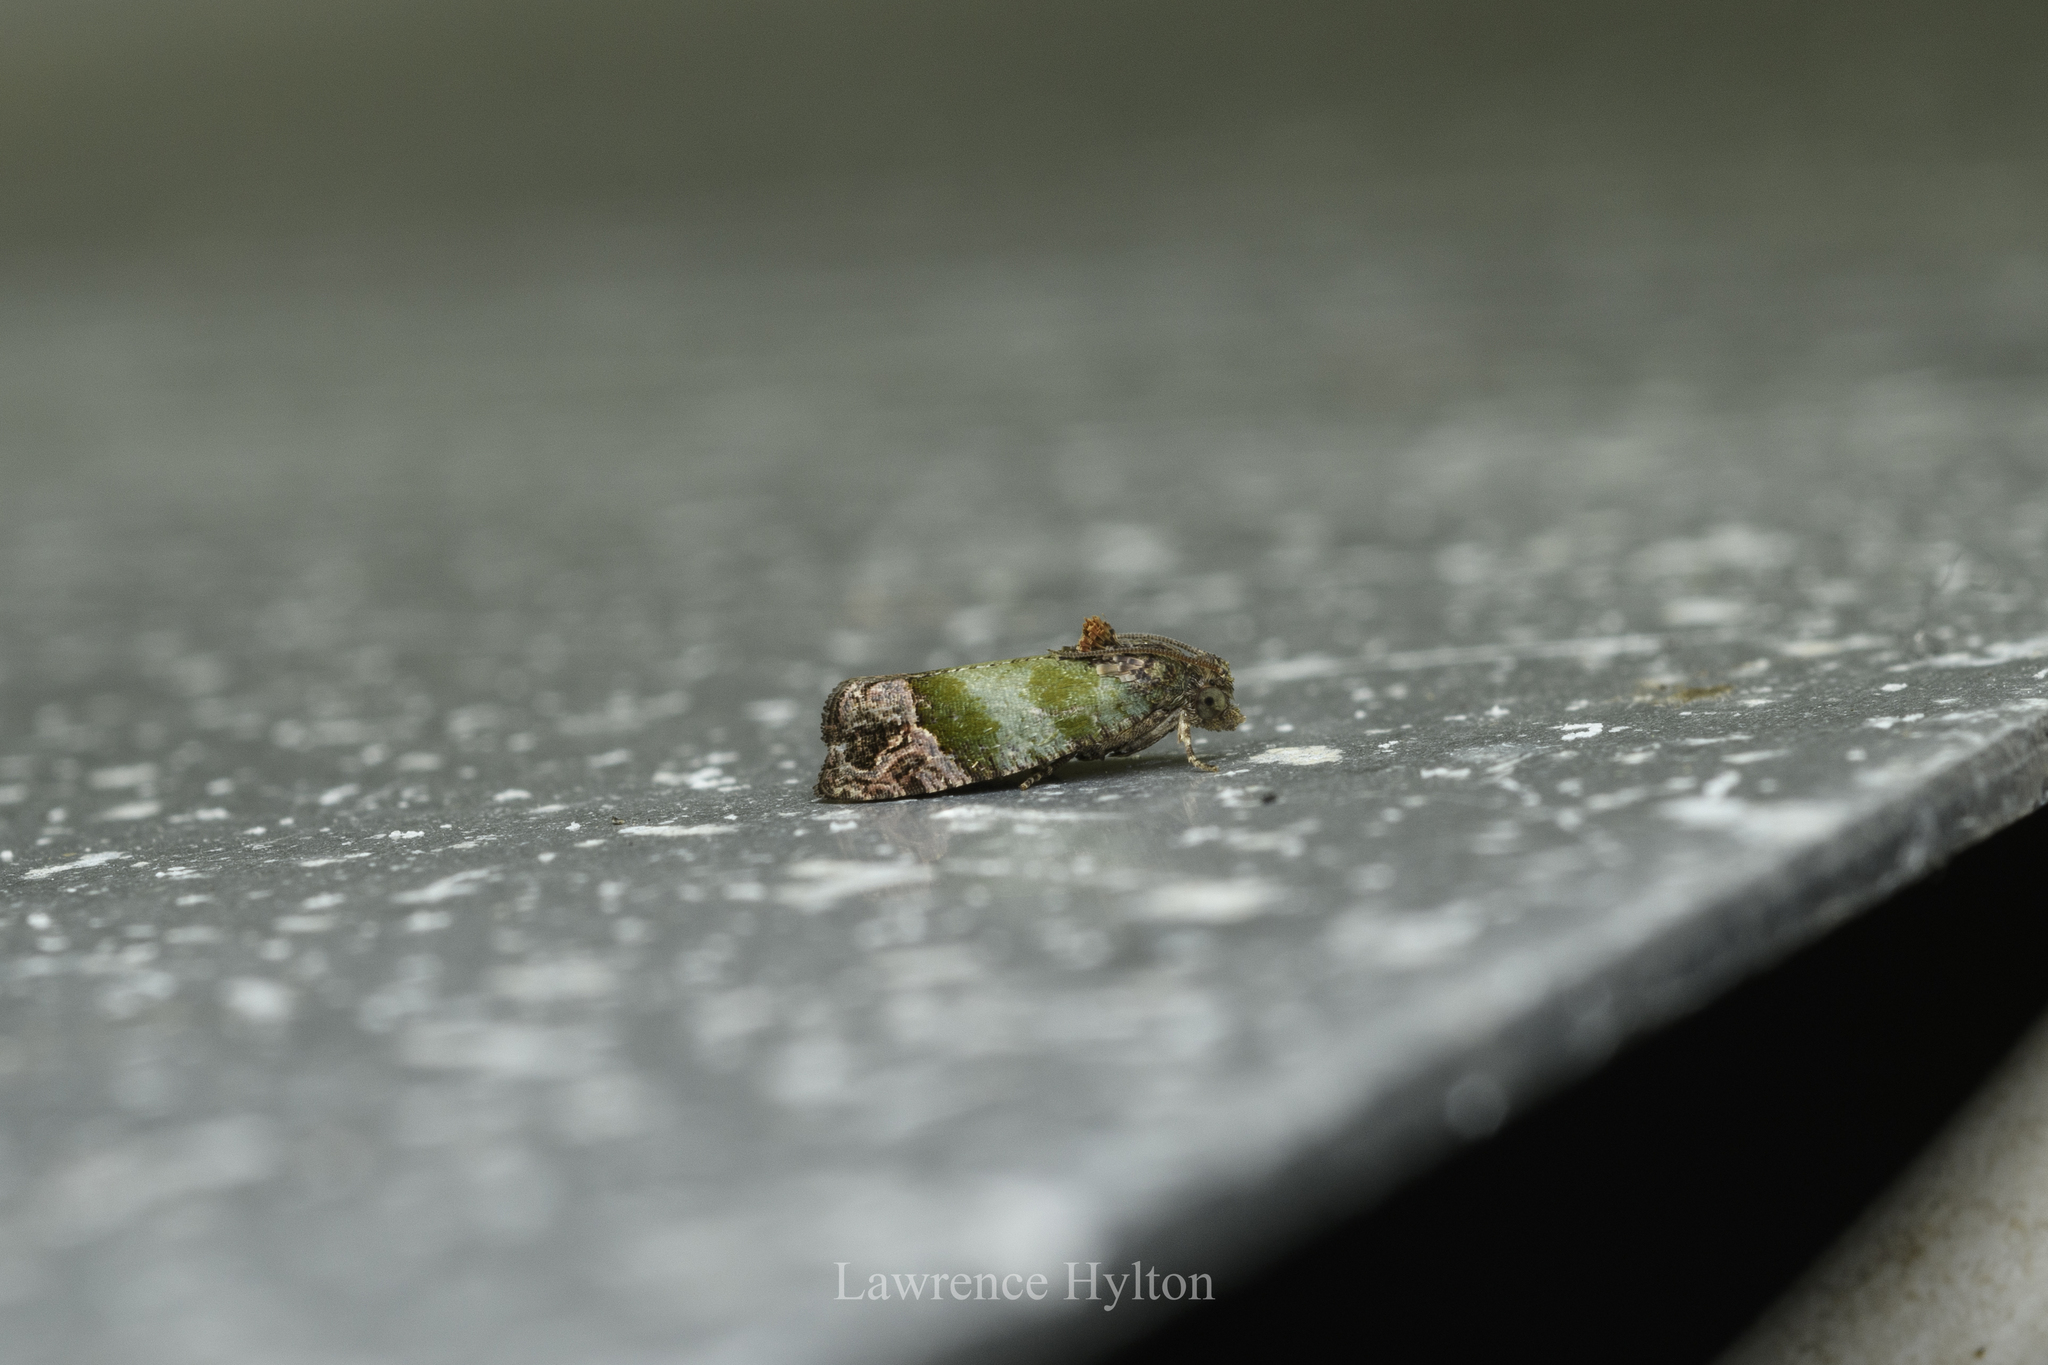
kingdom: Animalia
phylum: Arthropoda
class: Insecta
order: Lepidoptera
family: Tortricidae
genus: Sorolopha
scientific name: Sorolopha liochlora
